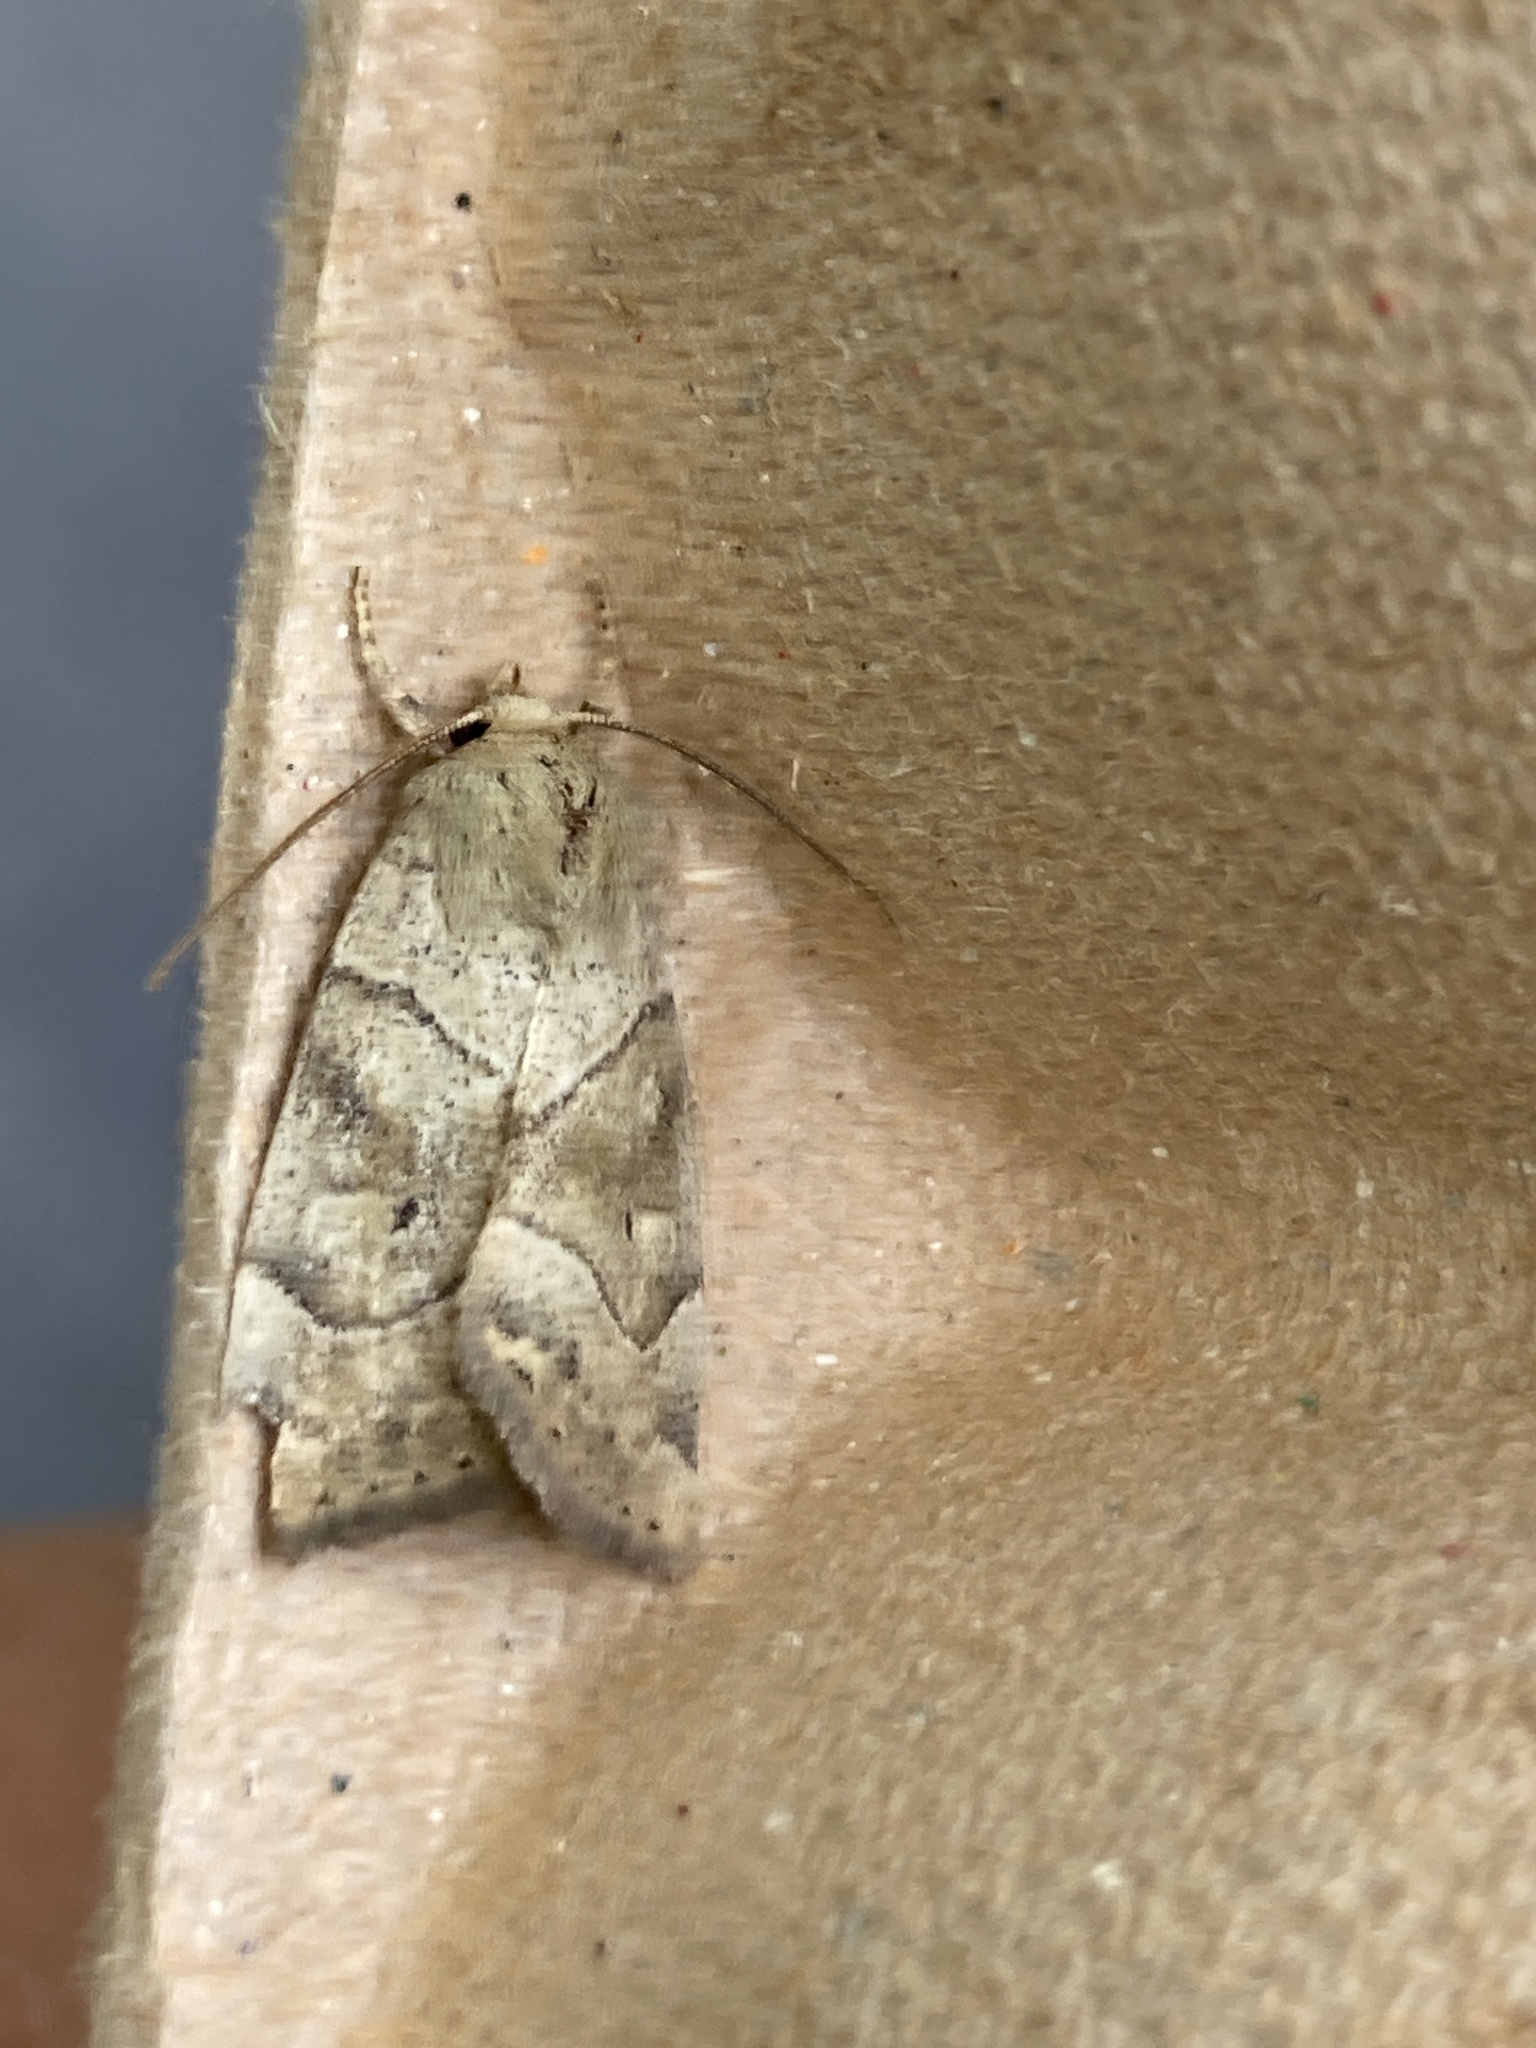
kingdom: Animalia
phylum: Arthropoda
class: Insecta
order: Lepidoptera
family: Noctuidae
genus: Cosmia
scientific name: Cosmia trapezina
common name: Dun-bar
